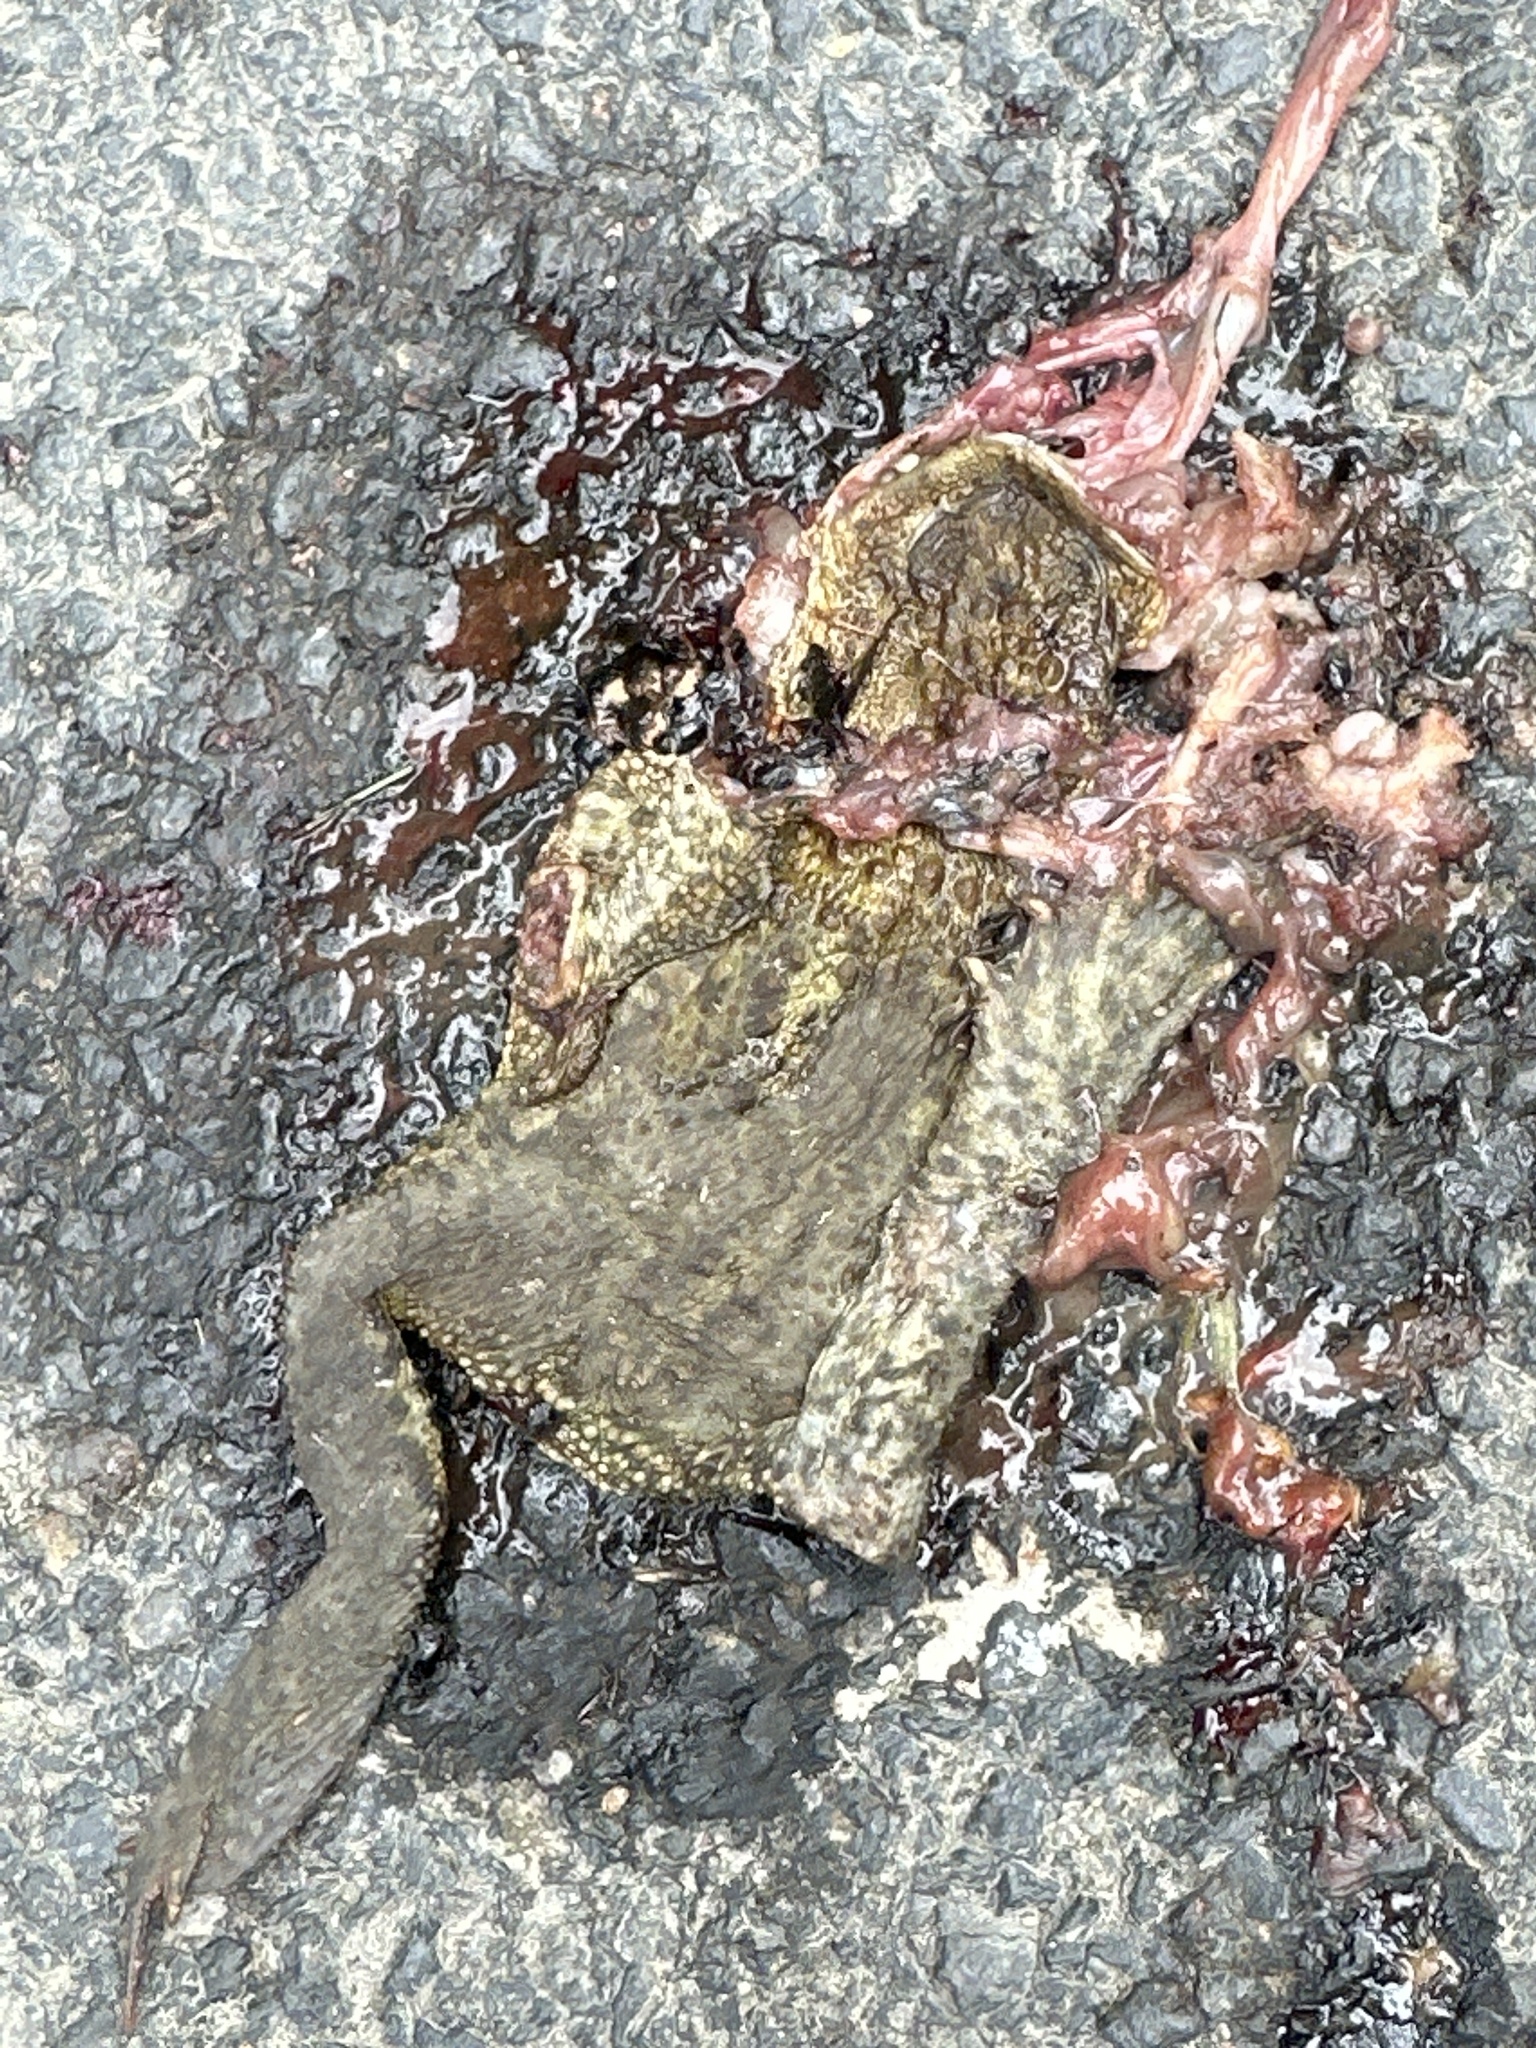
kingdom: Animalia
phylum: Chordata
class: Amphibia
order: Anura
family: Bufonidae
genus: Bufo
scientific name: Bufo bufo
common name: Common toad
